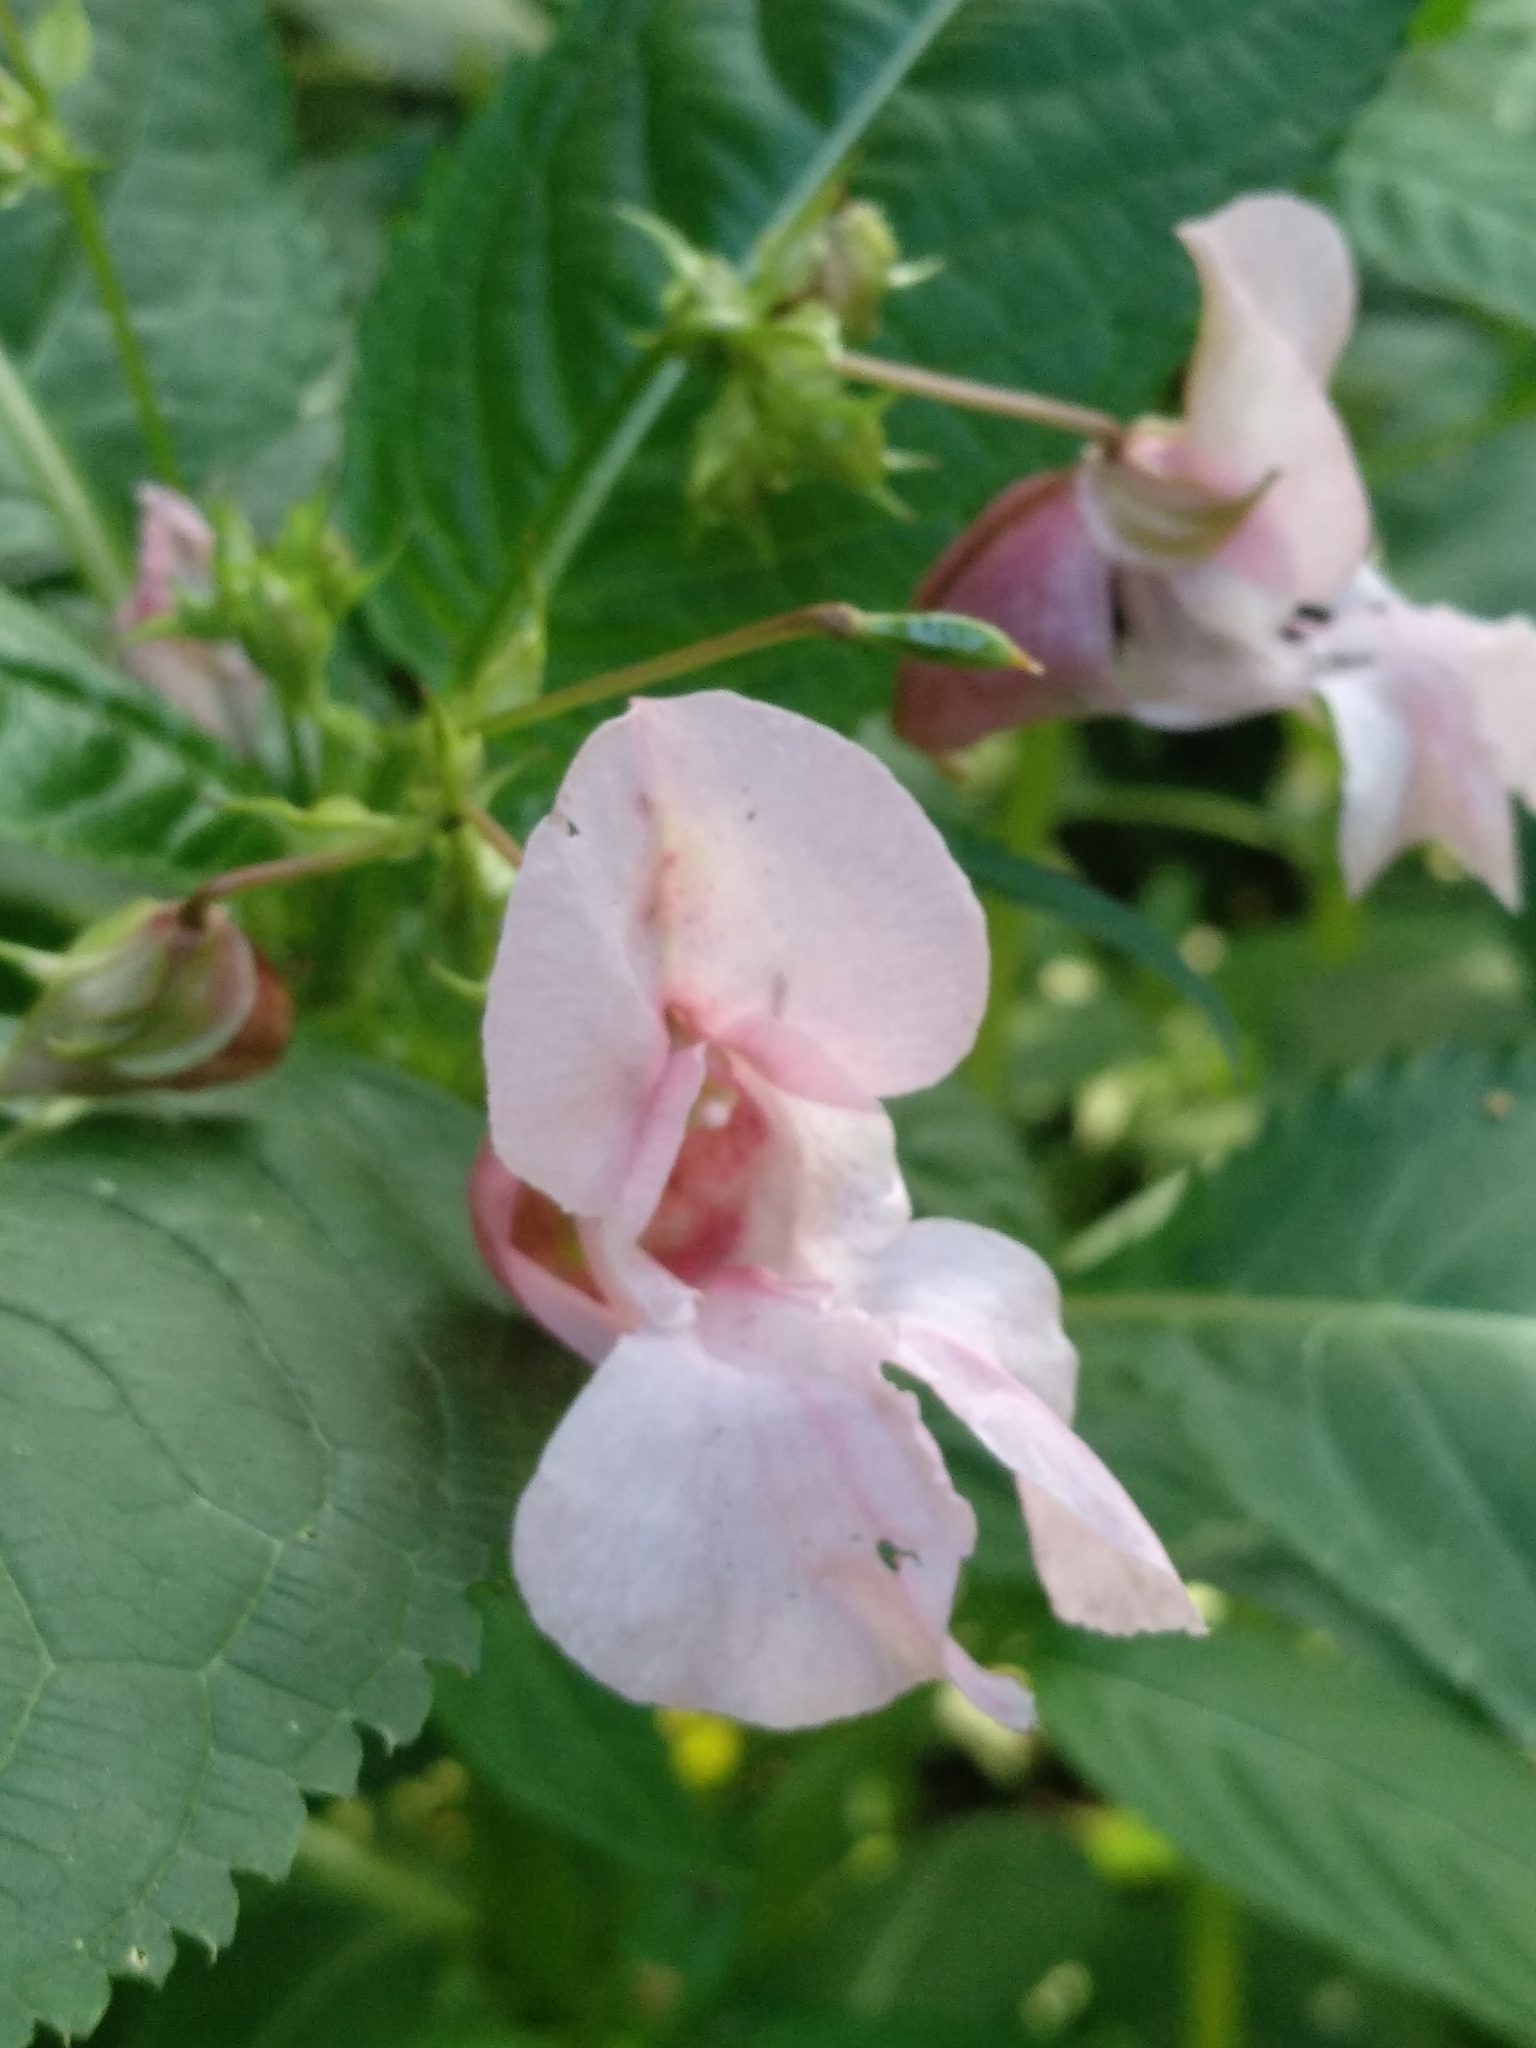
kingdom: Plantae
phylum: Tracheophyta
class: Magnoliopsida
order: Ericales
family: Balsaminaceae
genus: Impatiens
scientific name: Impatiens glandulifera
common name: Himalayan balsam
